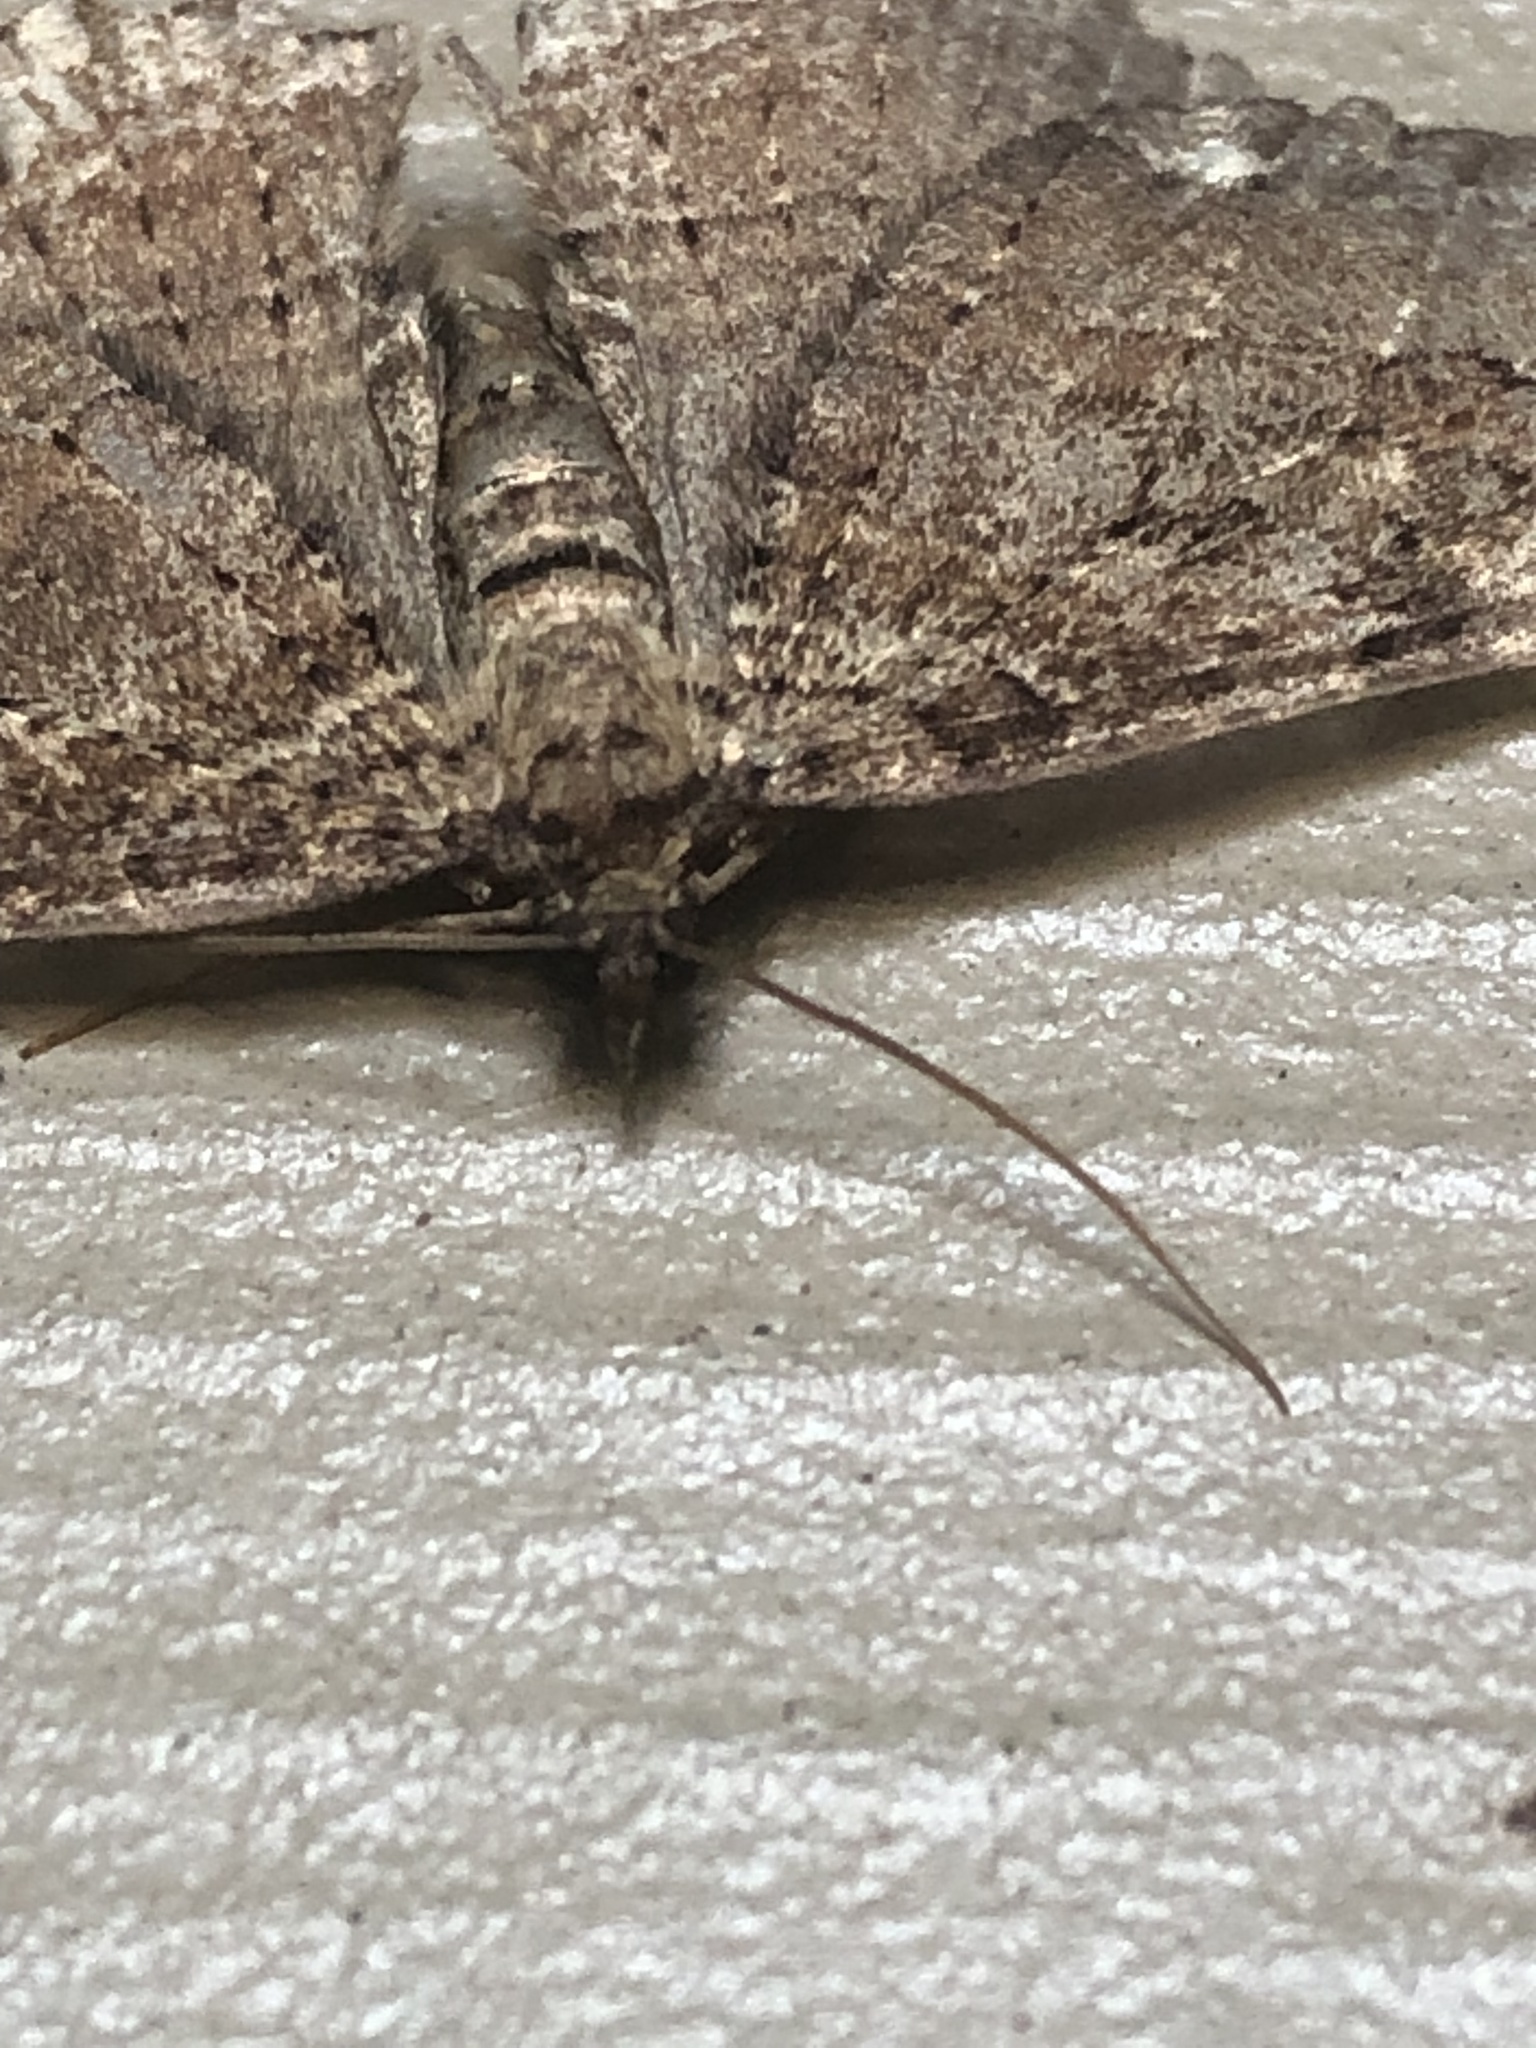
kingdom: Animalia
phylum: Arthropoda
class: Insecta
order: Lepidoptera
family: Geometridae
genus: Rheumaptera
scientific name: Rheumaptera
